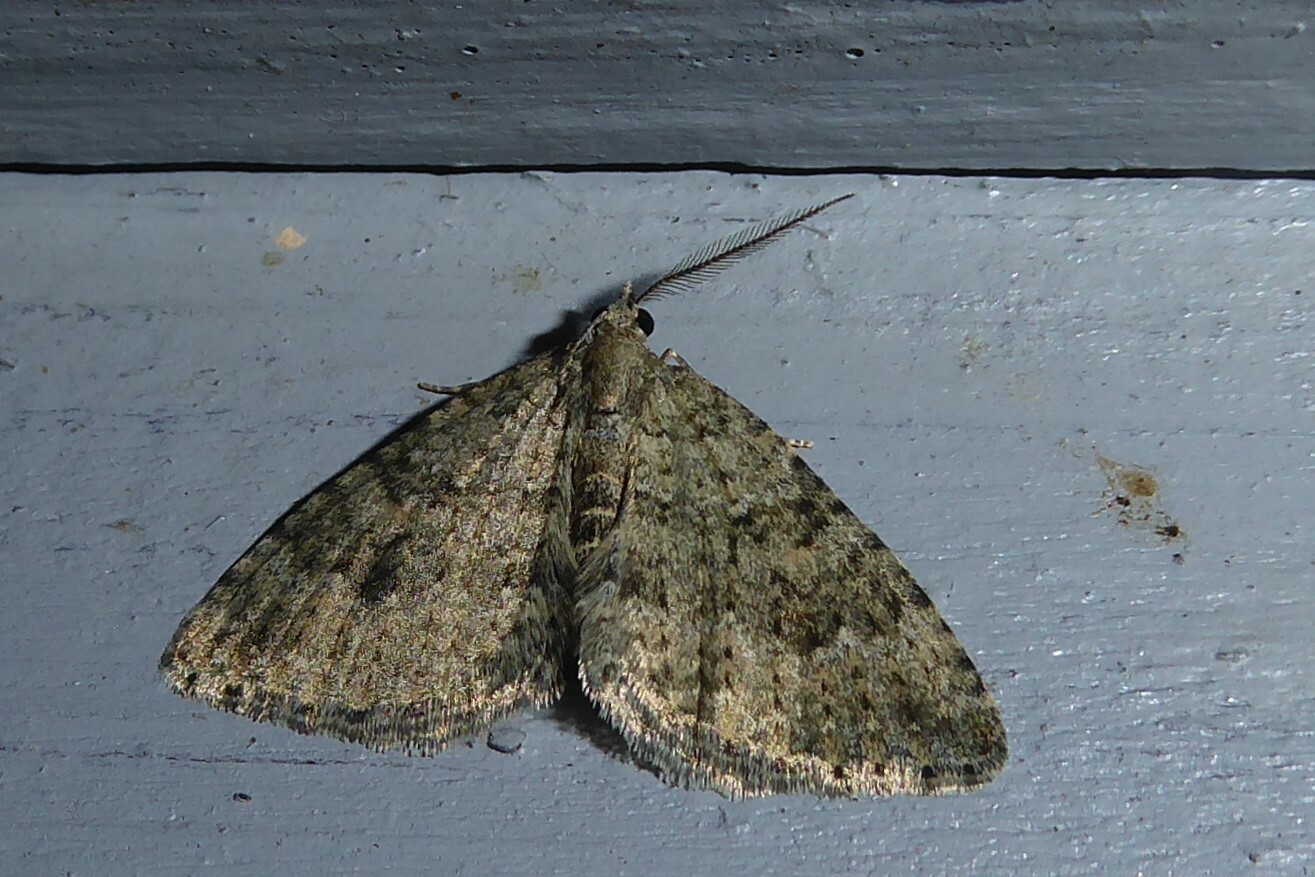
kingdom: Animalia
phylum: Arthropoda
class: Insecta
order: Lepidoptera
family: Geometridae
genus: Helastia
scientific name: Helastia corcularia
